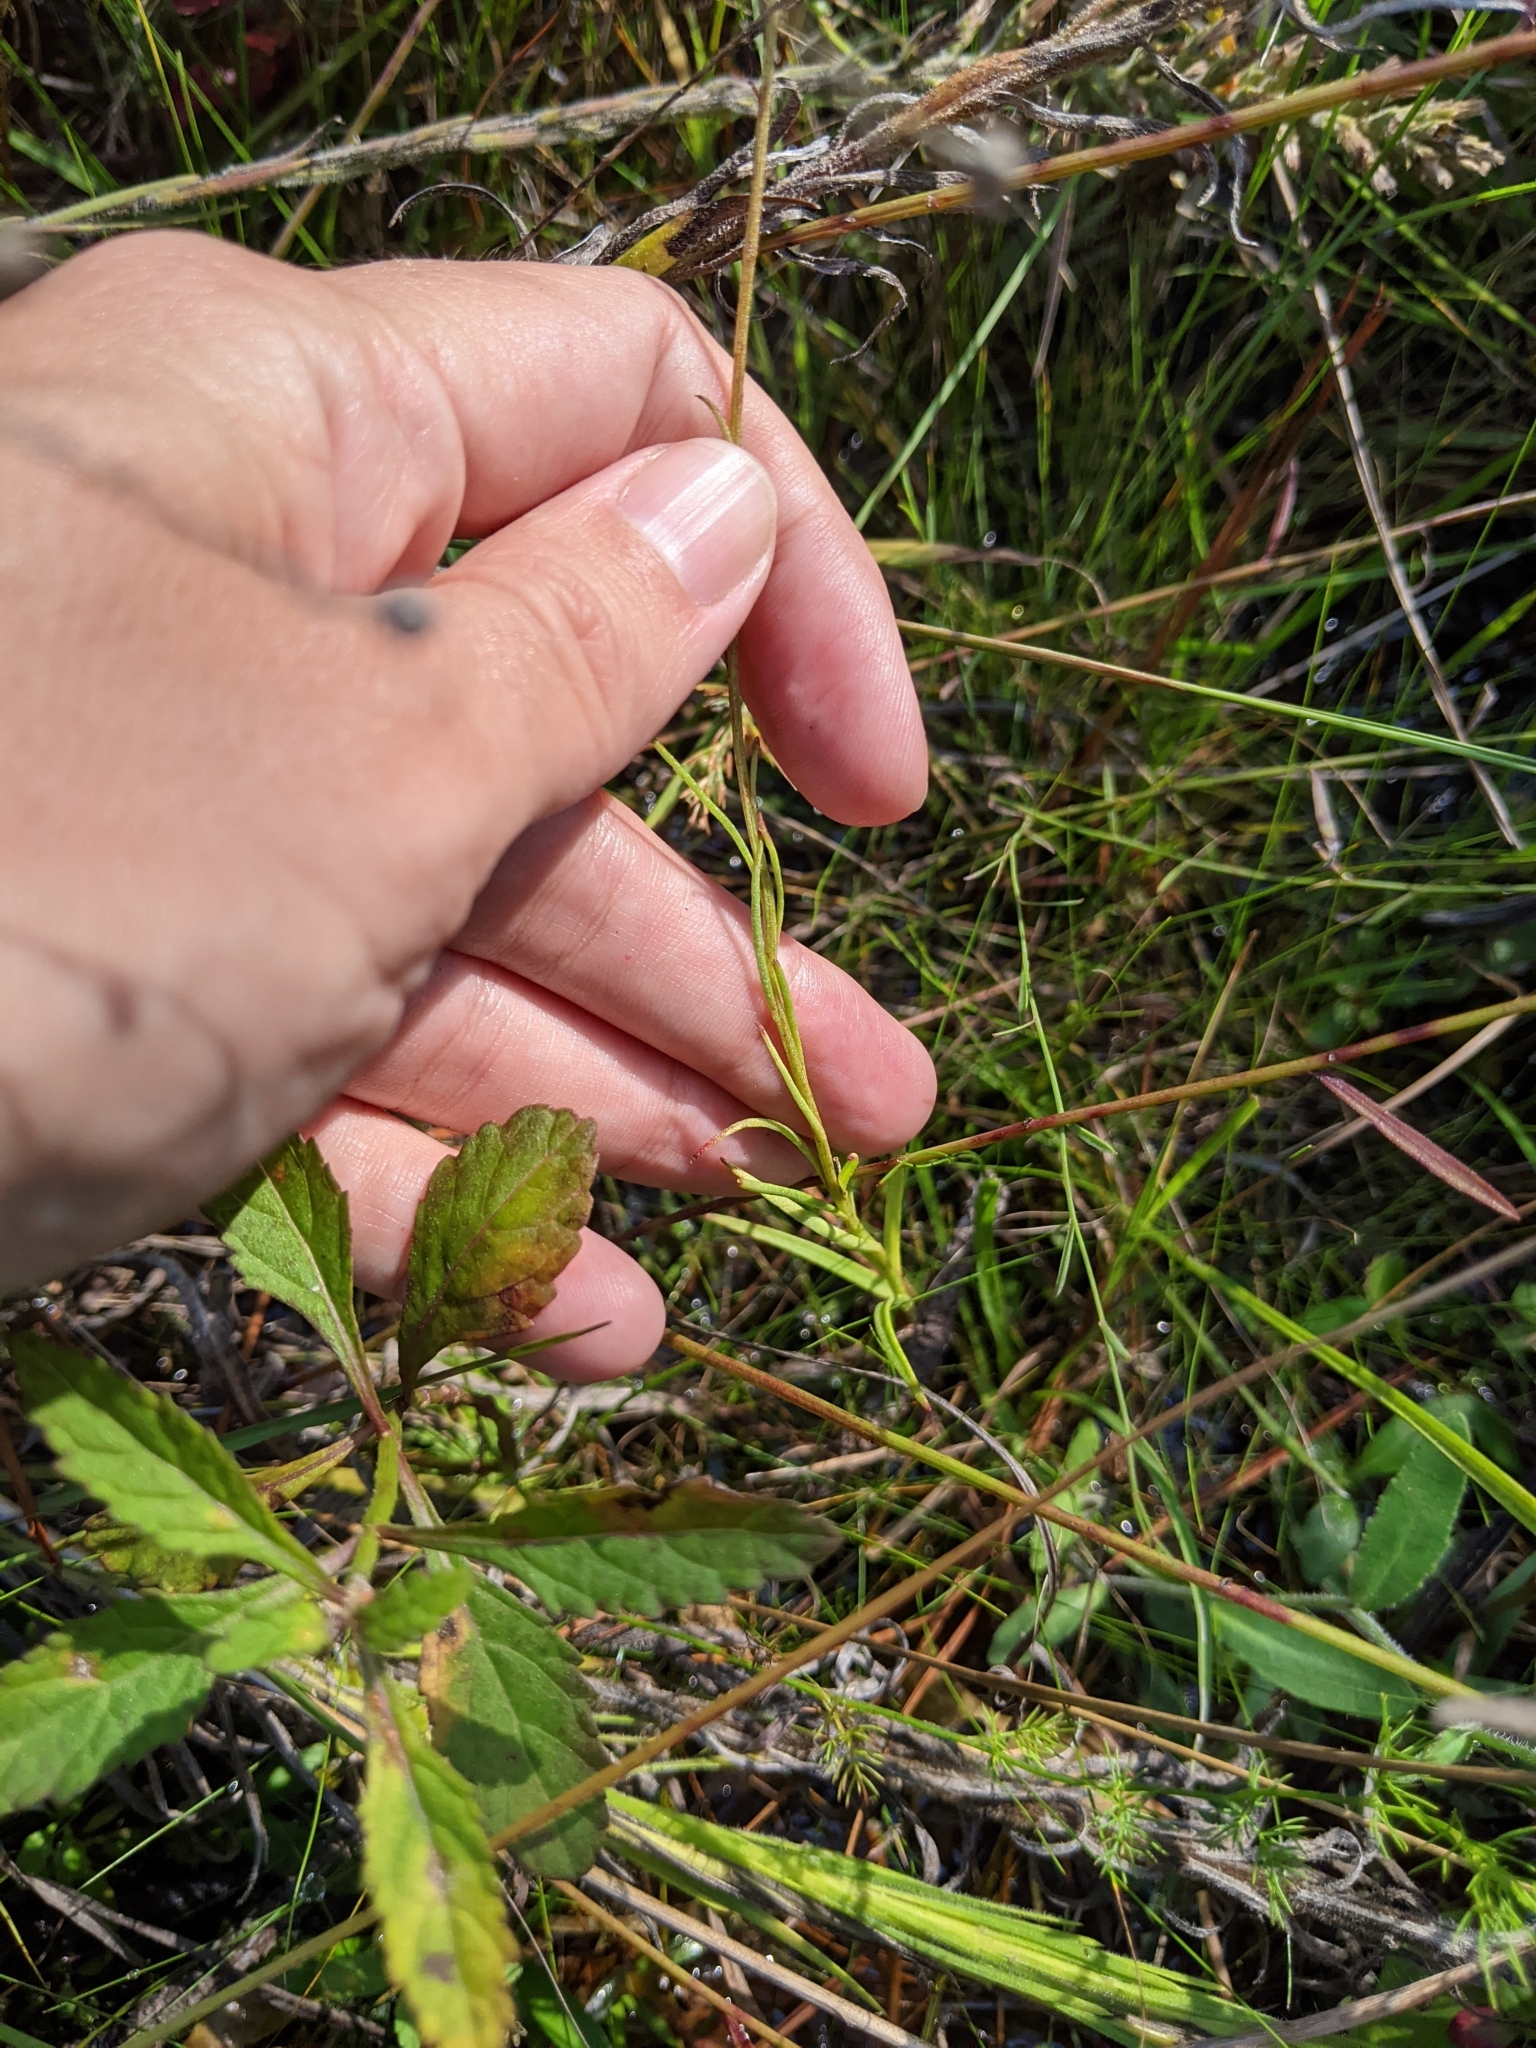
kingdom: Plantae
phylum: Tracheophyta
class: Magnoliopsida
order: Asterales
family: Asteraceae
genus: Marshallia
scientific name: Marshallia graminifolia
